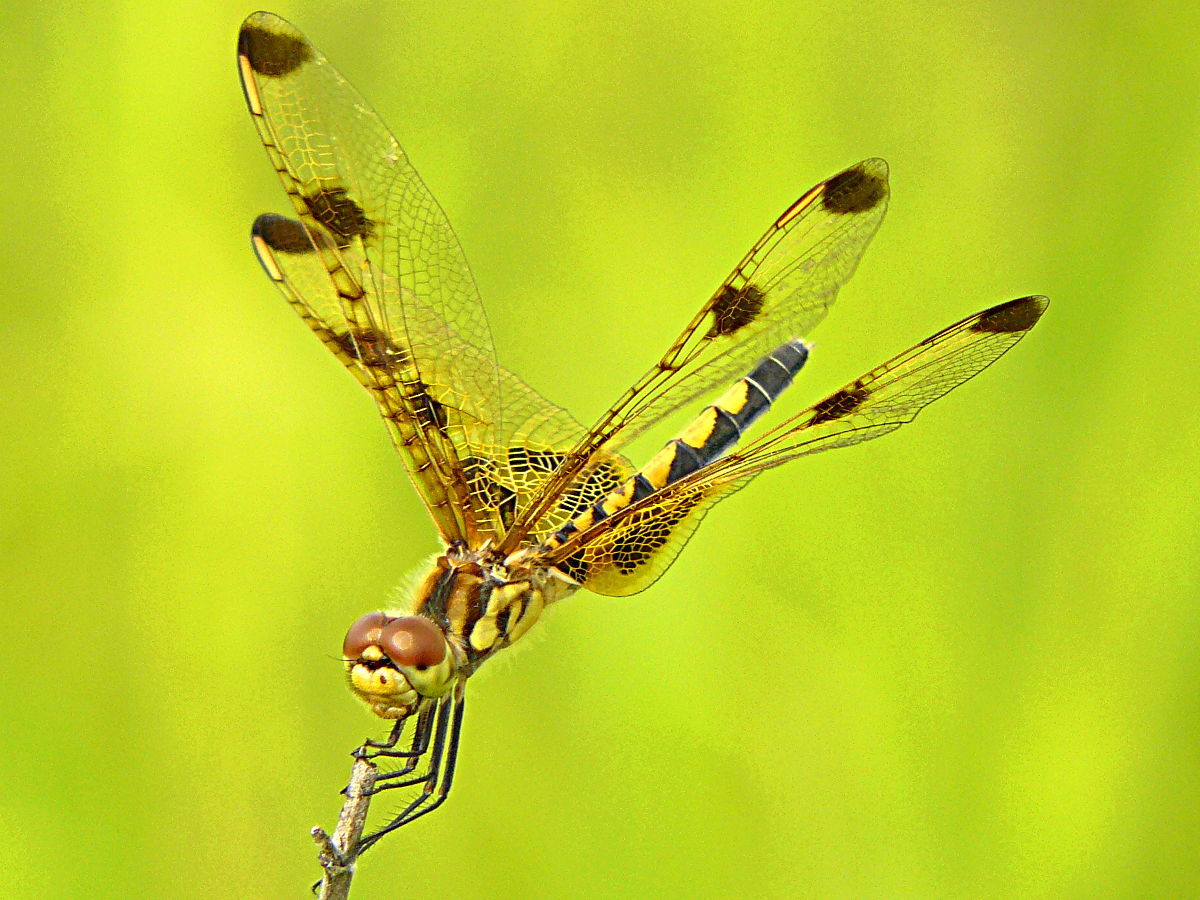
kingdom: Animalia
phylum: Arthropoda
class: Insecta
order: Odonata
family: Libellulidae
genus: Celithemis
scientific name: Celithemis elisa
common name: Calico pennant
